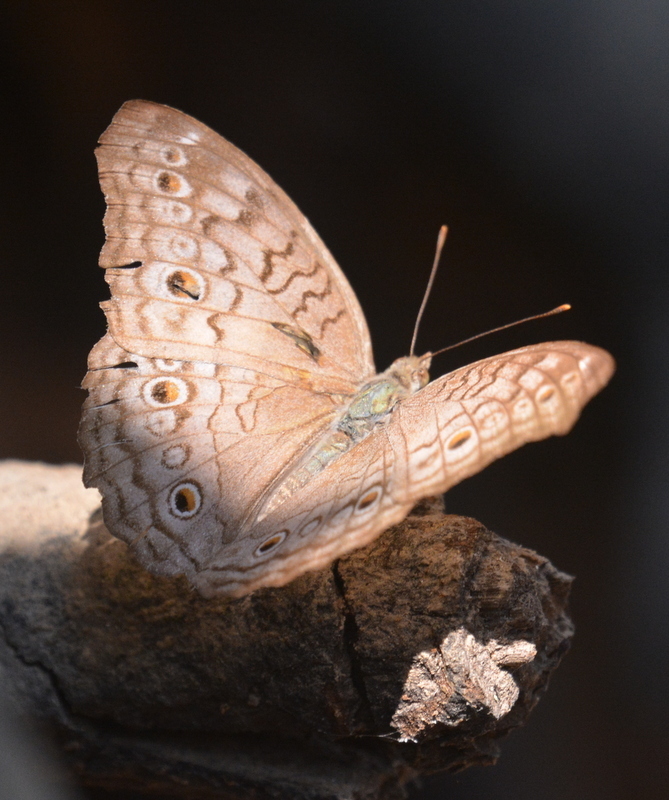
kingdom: Animalia
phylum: Arthropoda
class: Insecta
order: Lepidoptera
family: Nymphalidae
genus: Junonia
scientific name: Junonia atlites
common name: Grey pansy
